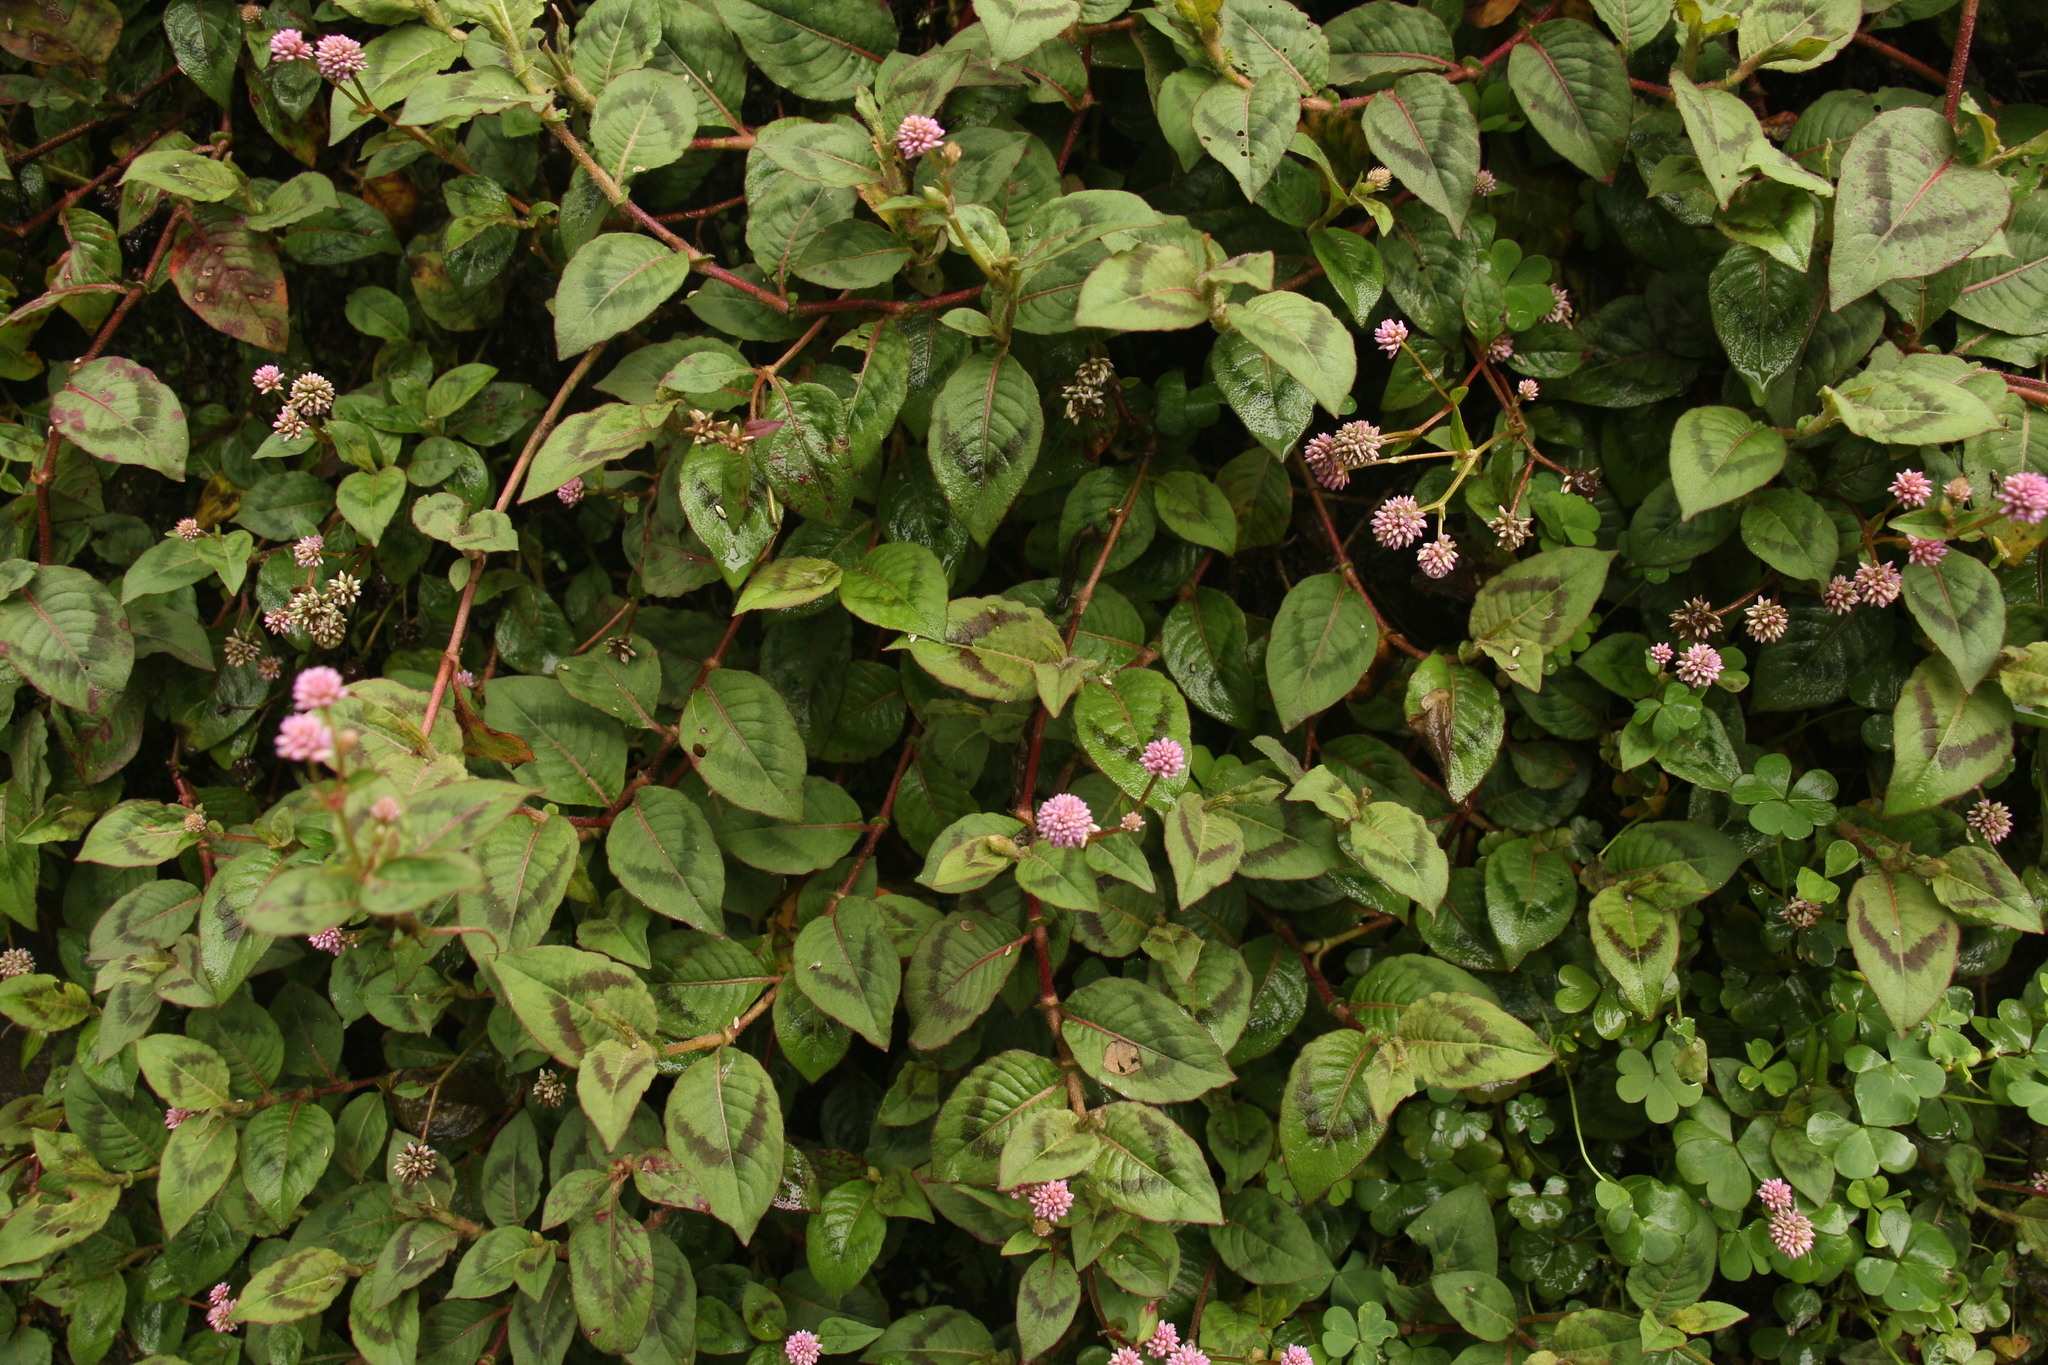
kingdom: Plantae
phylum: Tracheophyta
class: Magnoliopsida
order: Caryophyllales
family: Polygonaceae
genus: Persicaria
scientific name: Persicaria capitata
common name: Pinkhead smartweed
